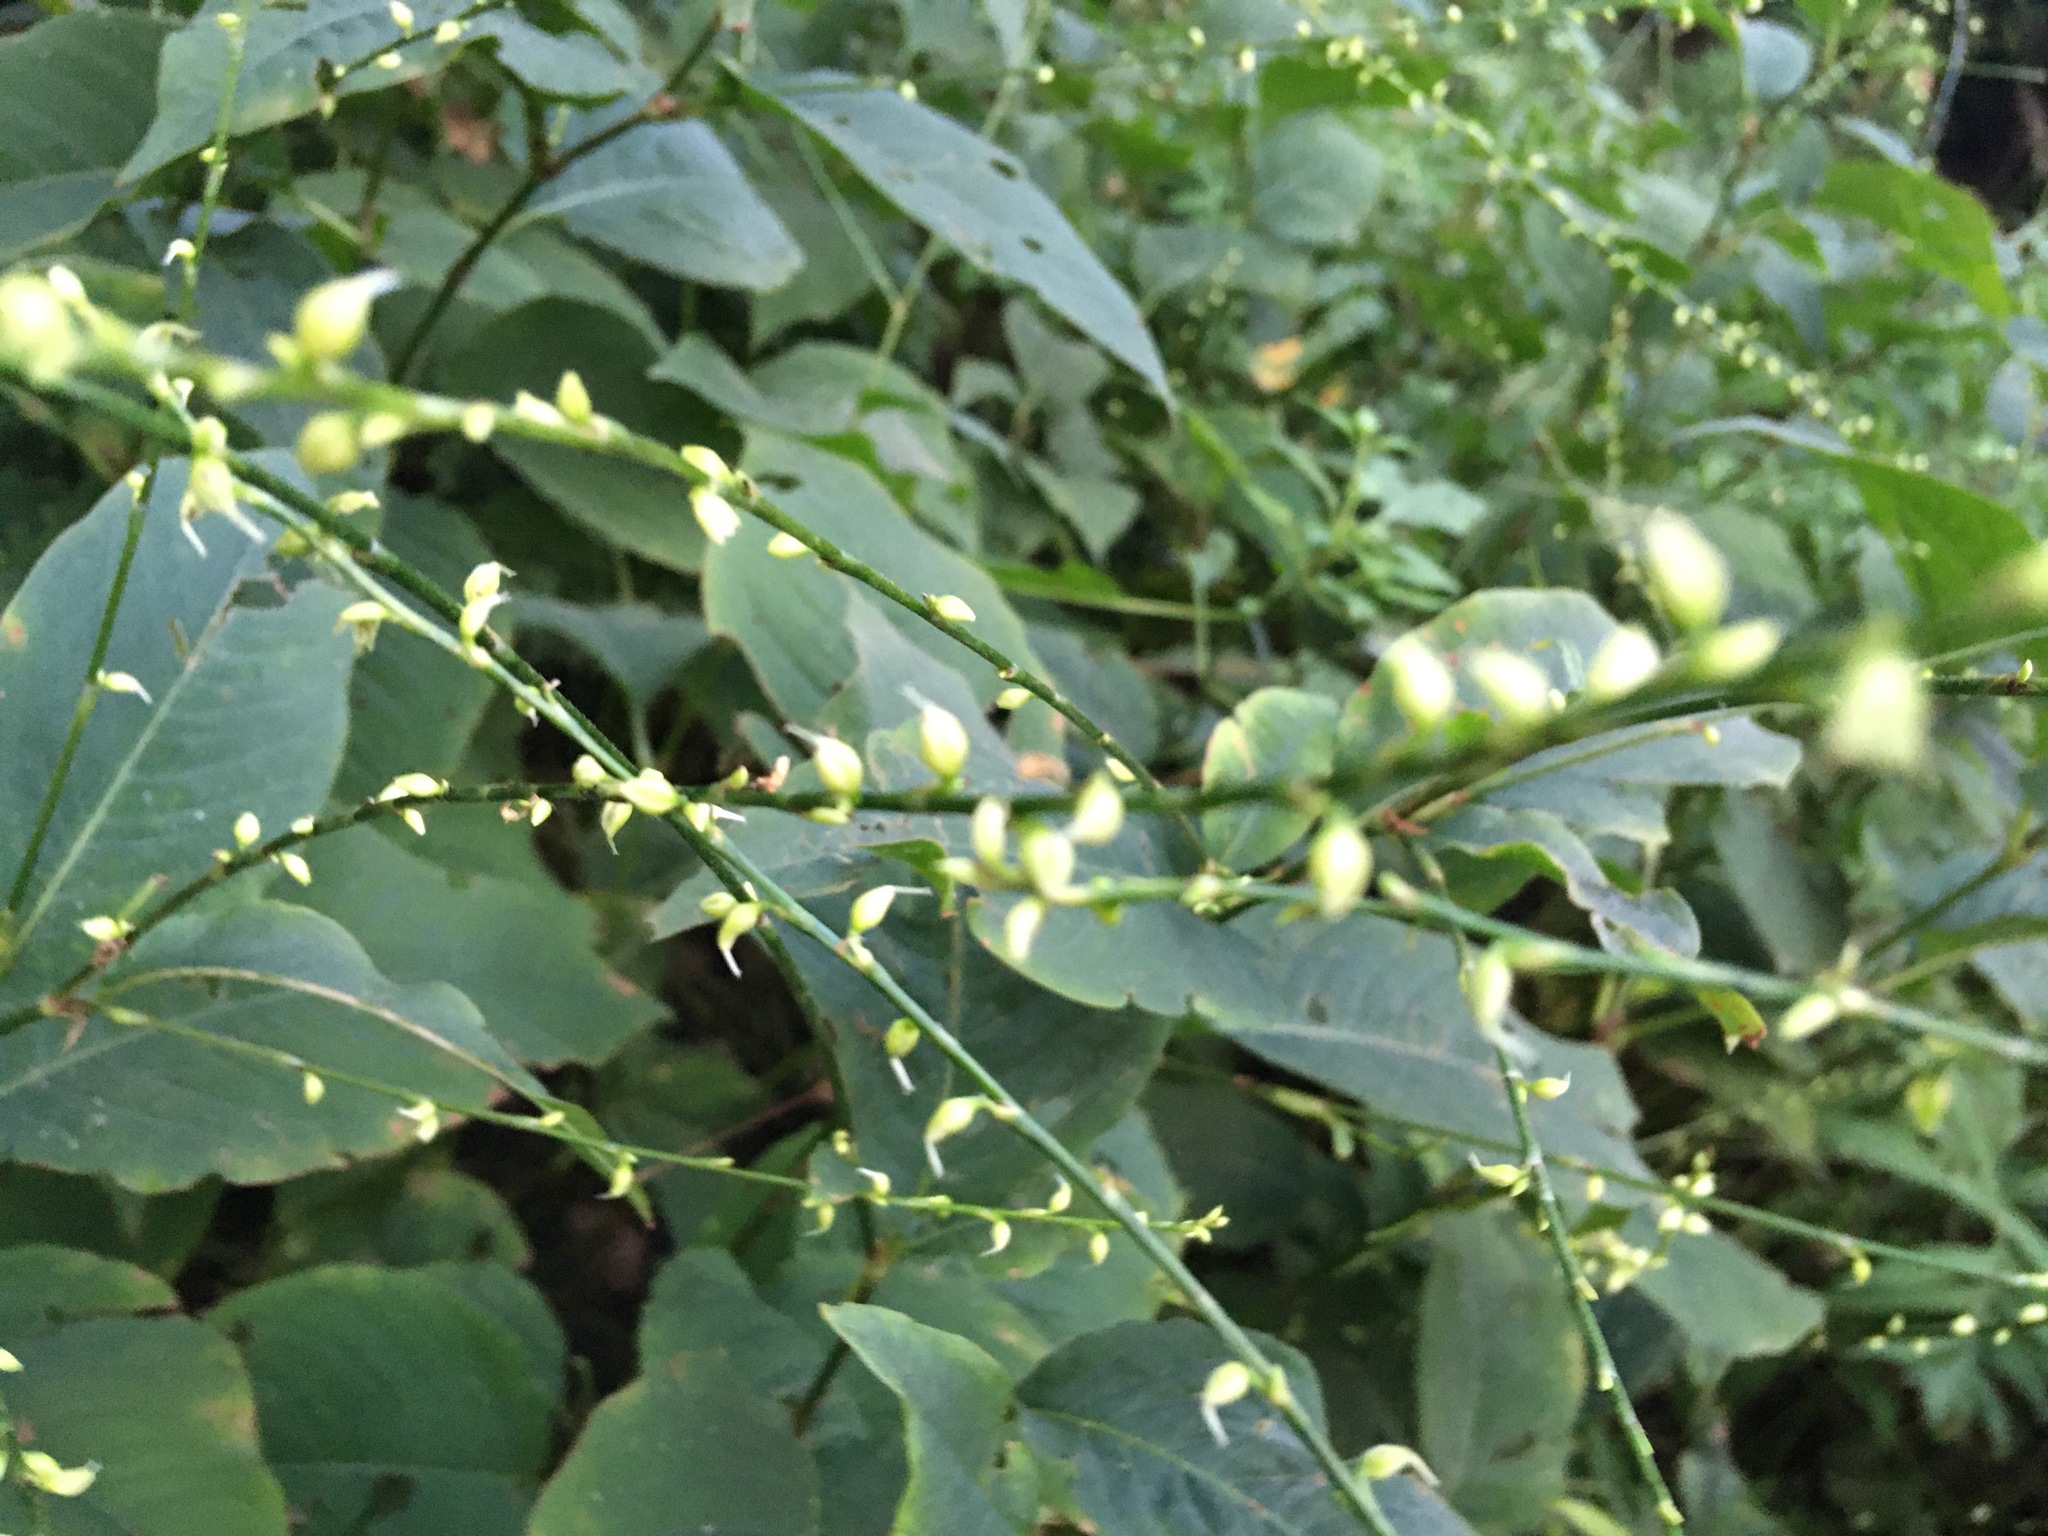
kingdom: Plantae
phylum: Tracheophyta
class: Magnoliopsida
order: Caryophyllales
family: Polygonaceae
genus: Persicaria
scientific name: Persicaria virginiana
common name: Jumpseed
